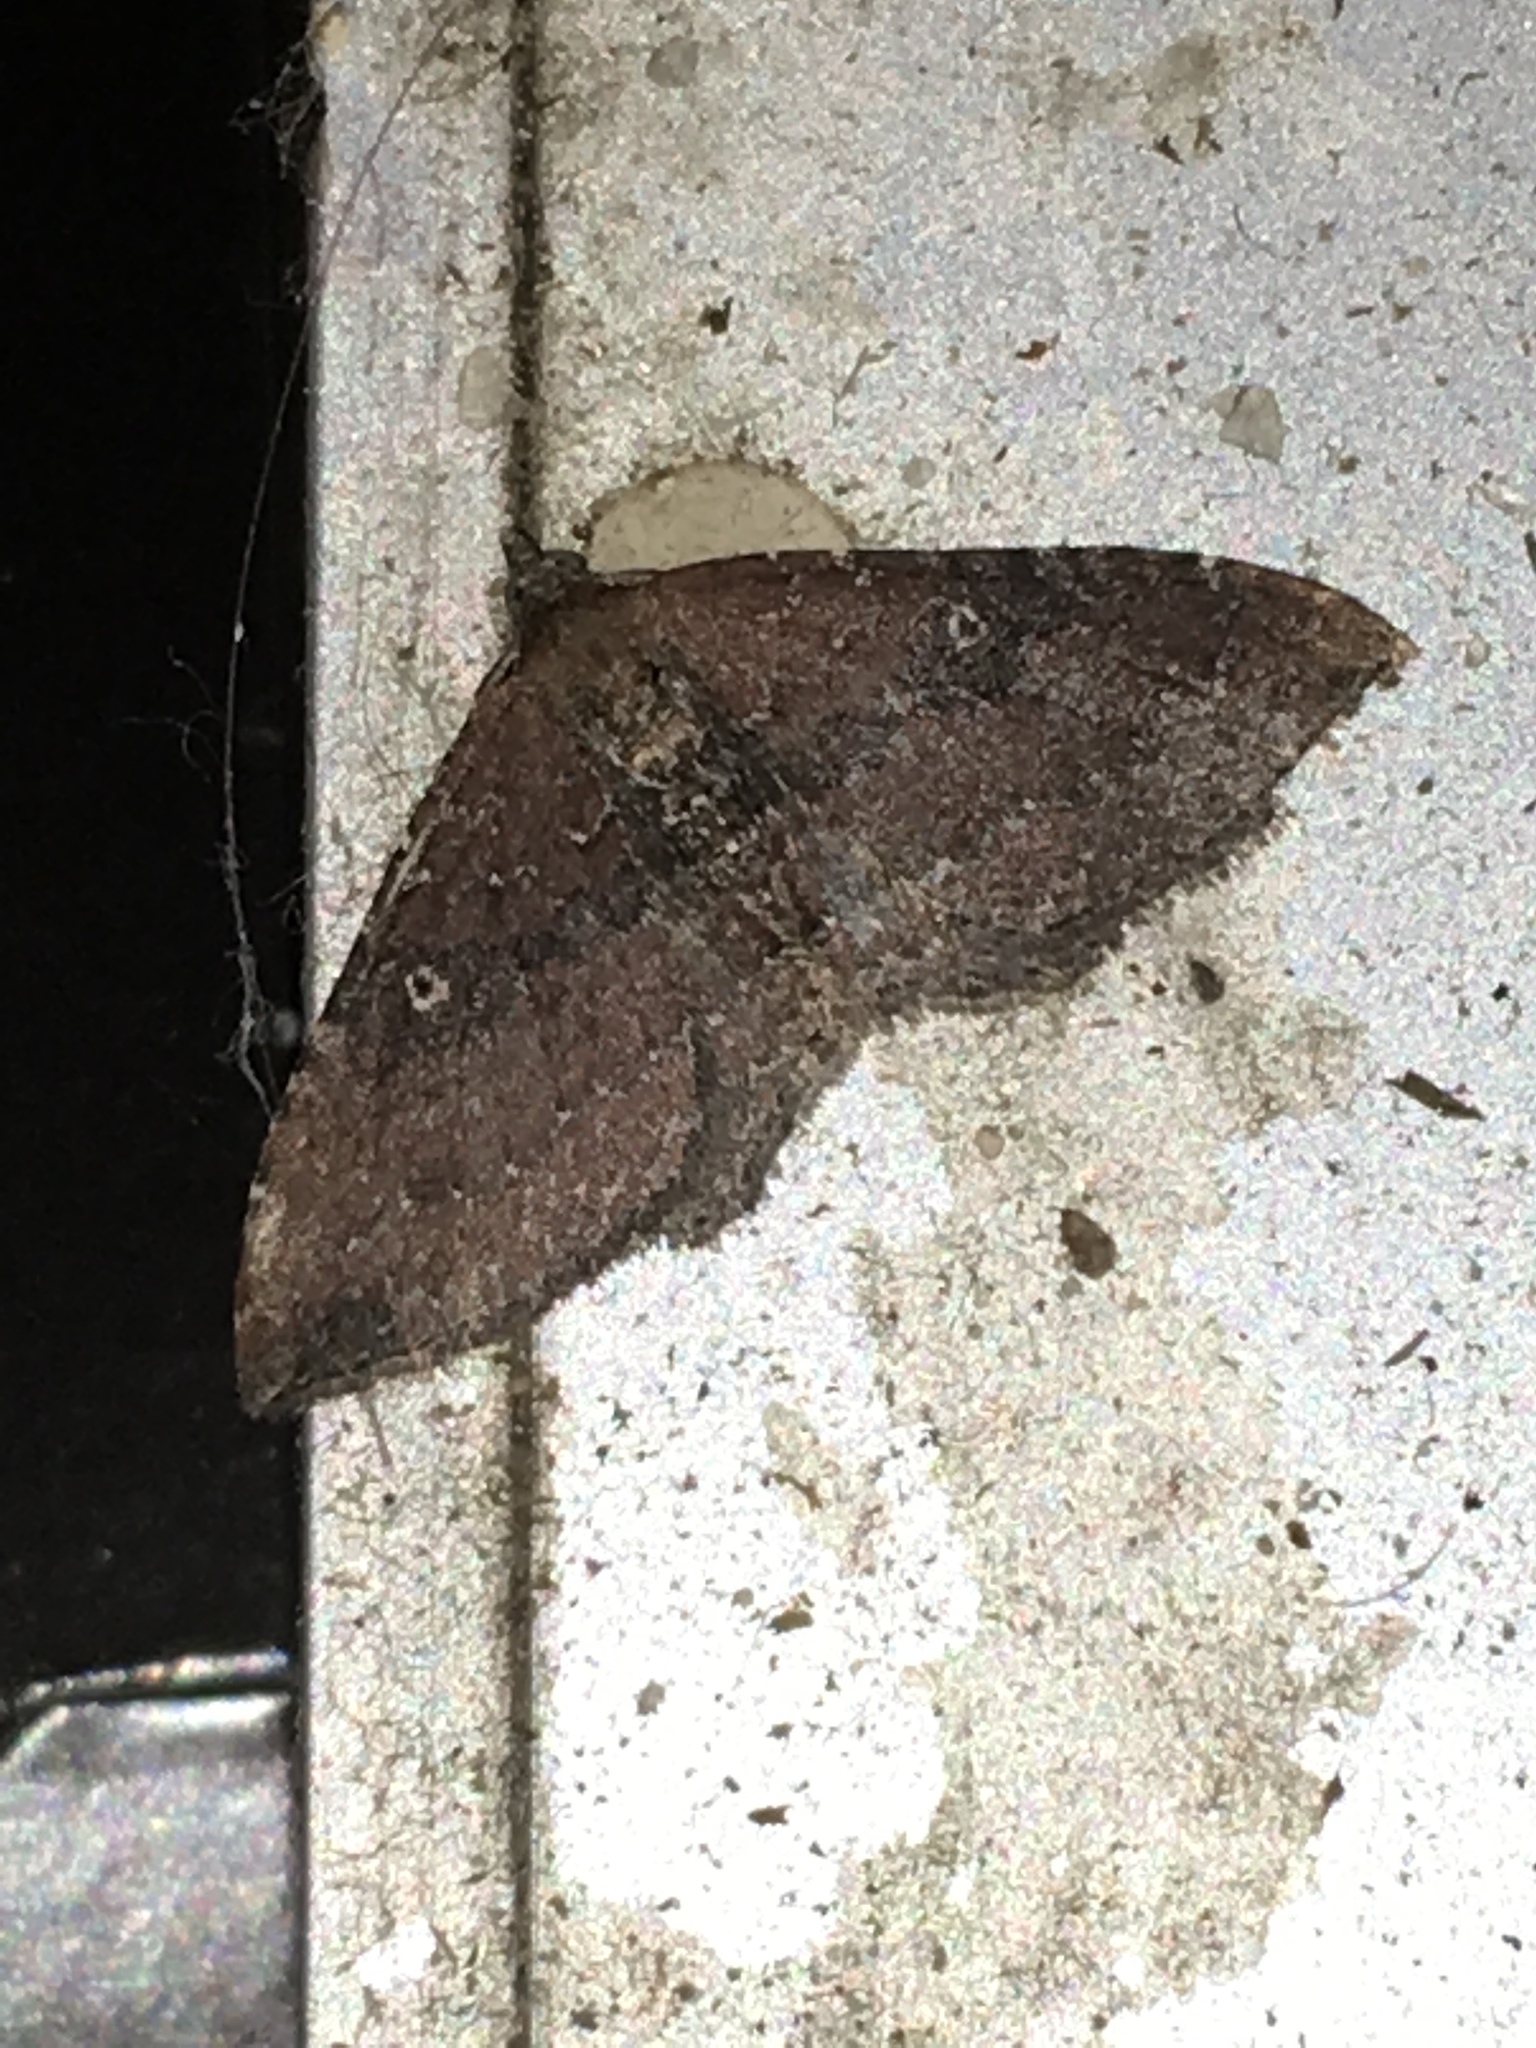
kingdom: Animalia
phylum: Arthropoda
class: Insecta
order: Lepidoptera
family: Geometridae
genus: Orthonama
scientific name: Orthonama obstipata
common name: The gem
